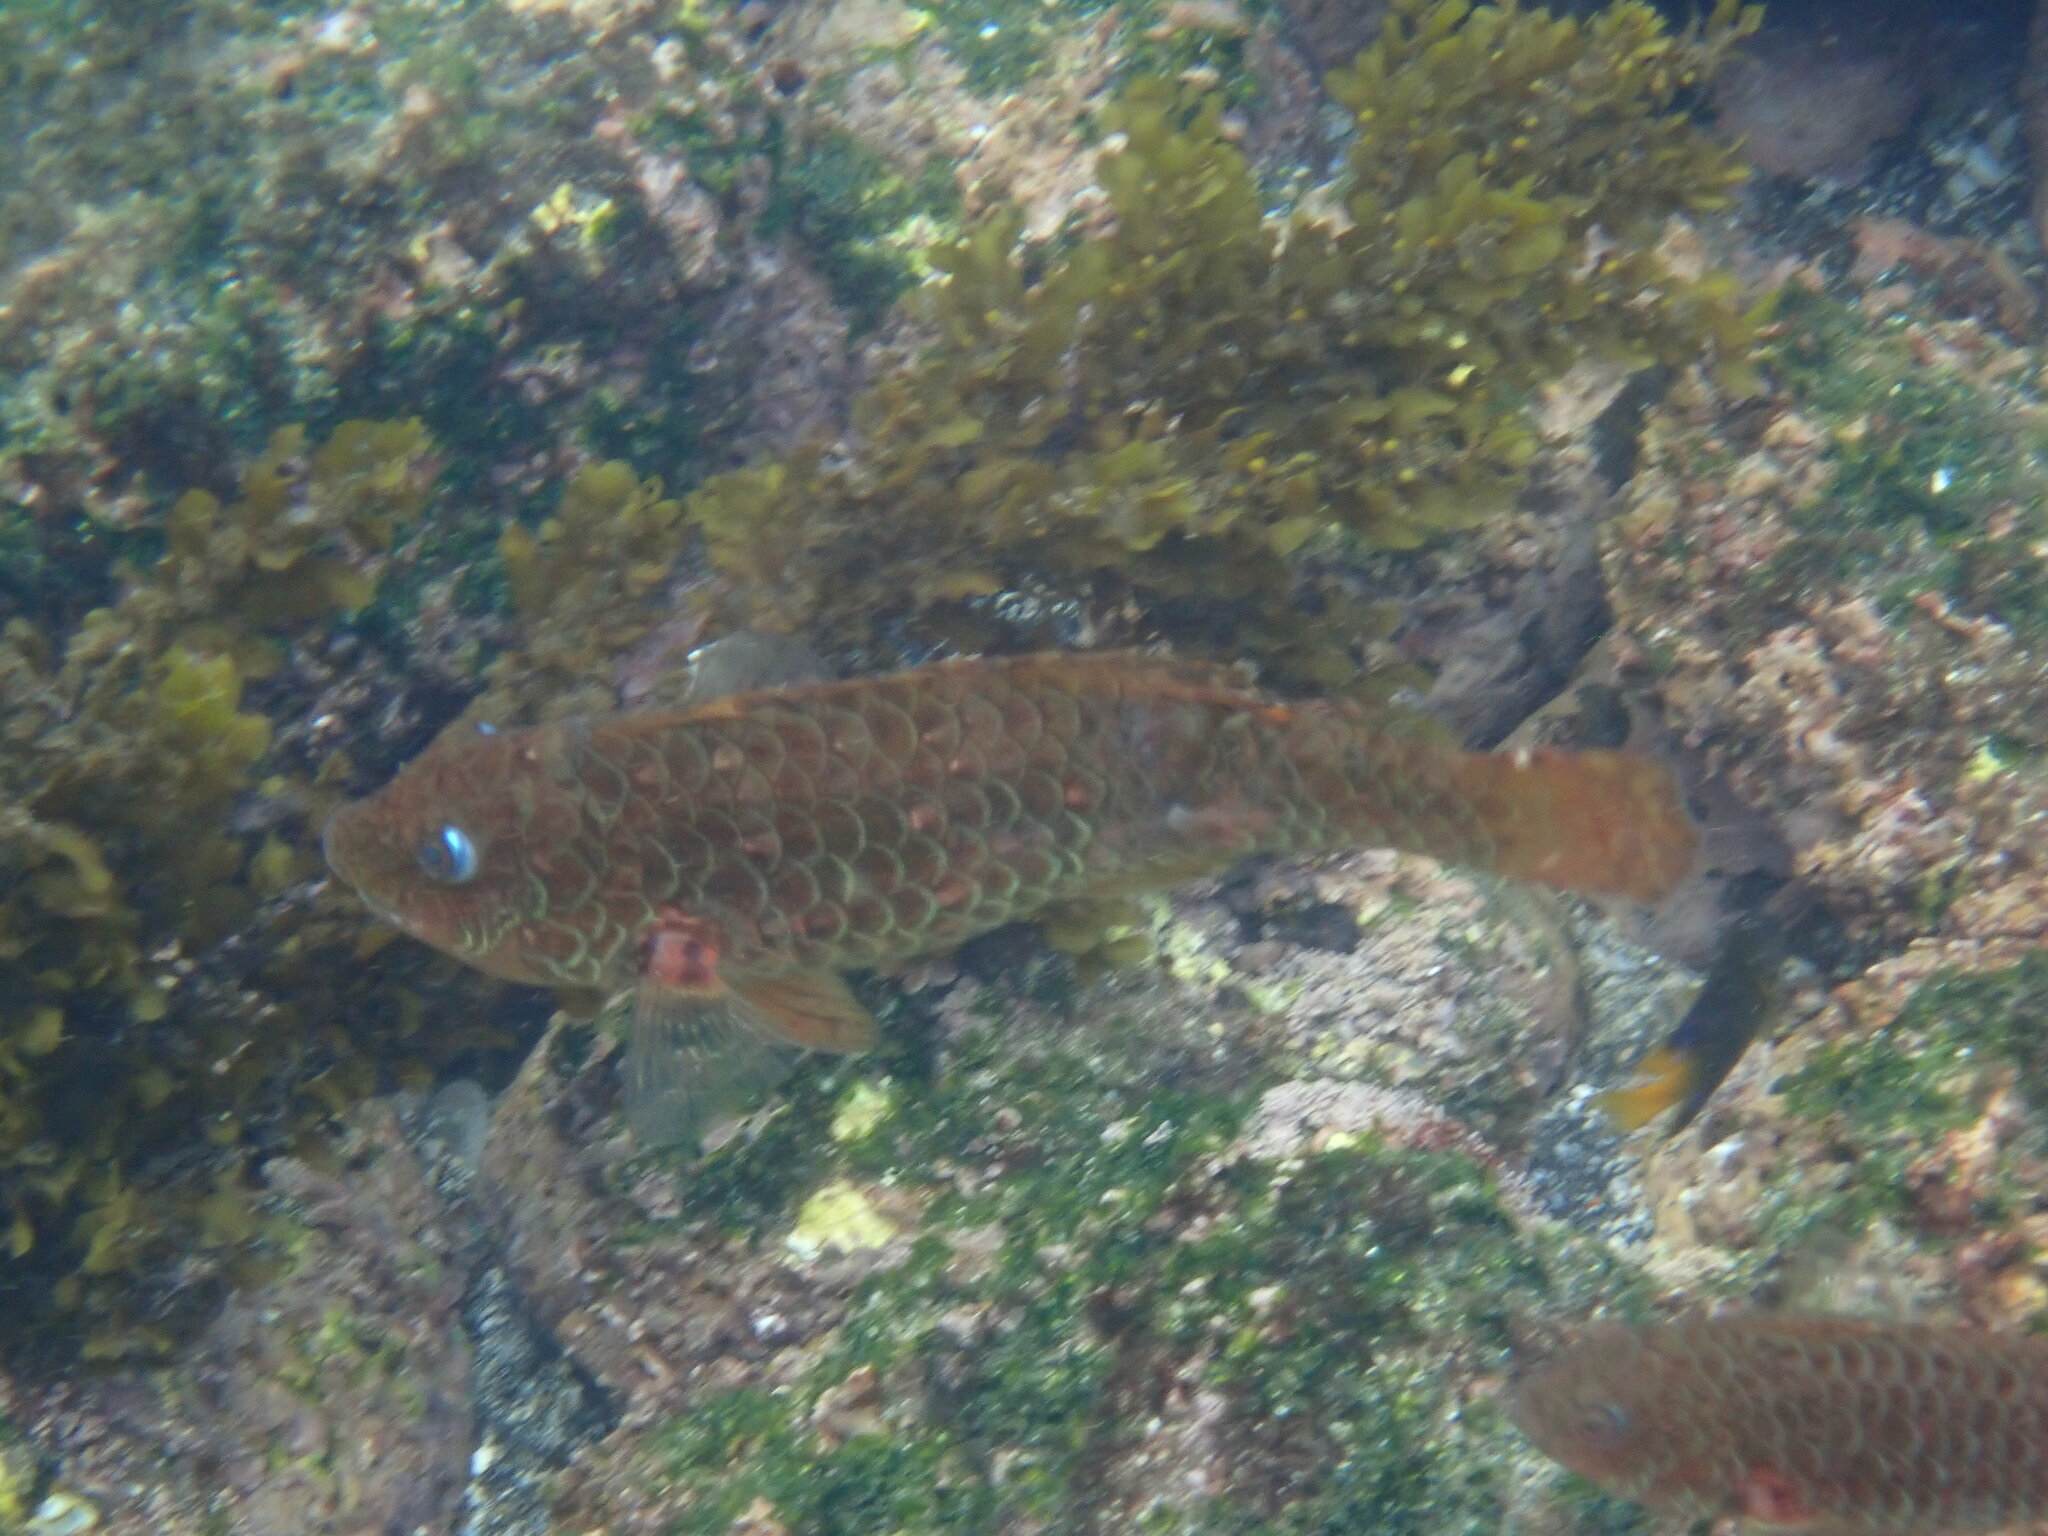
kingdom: Animalia
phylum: Chordata
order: Perciformes
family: Scaridae
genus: Nicholsina
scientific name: Nicholsina denticulata
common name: Loosetooth parrotfish
